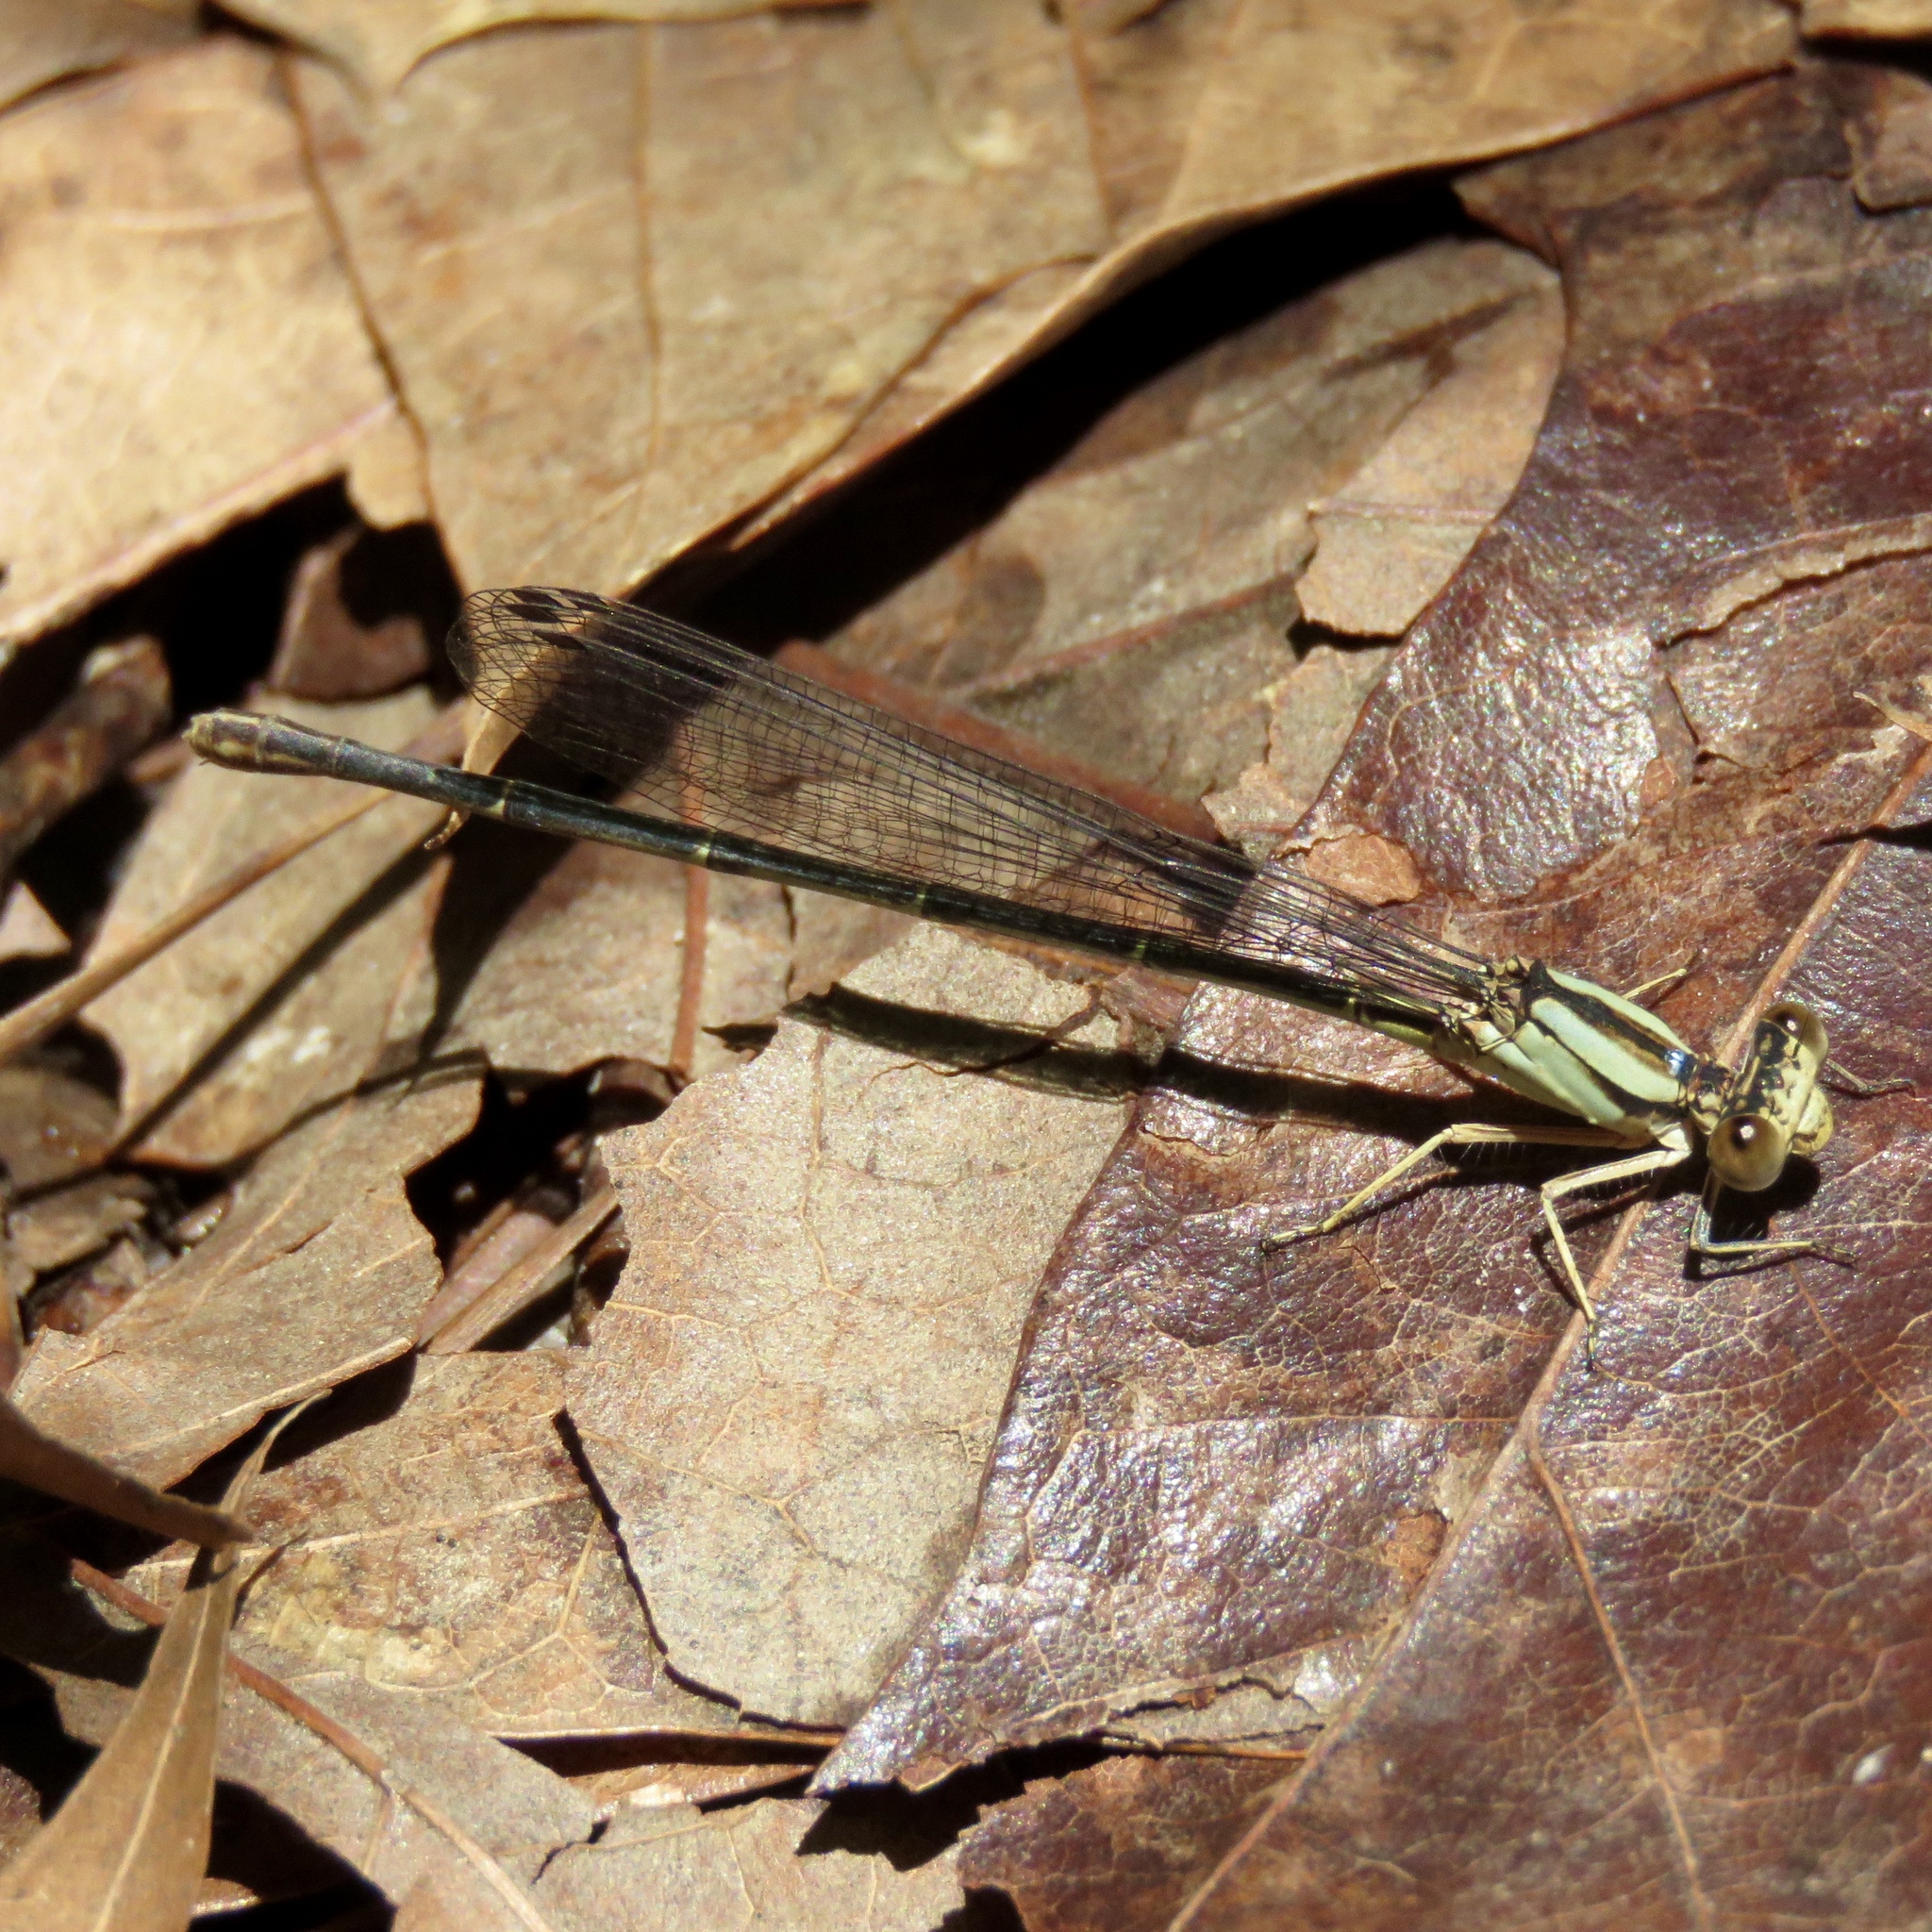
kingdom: Animalia
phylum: Arthropoda
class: Insecta
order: Odonata
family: Coenagrionidae
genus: Argia
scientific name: Argia
